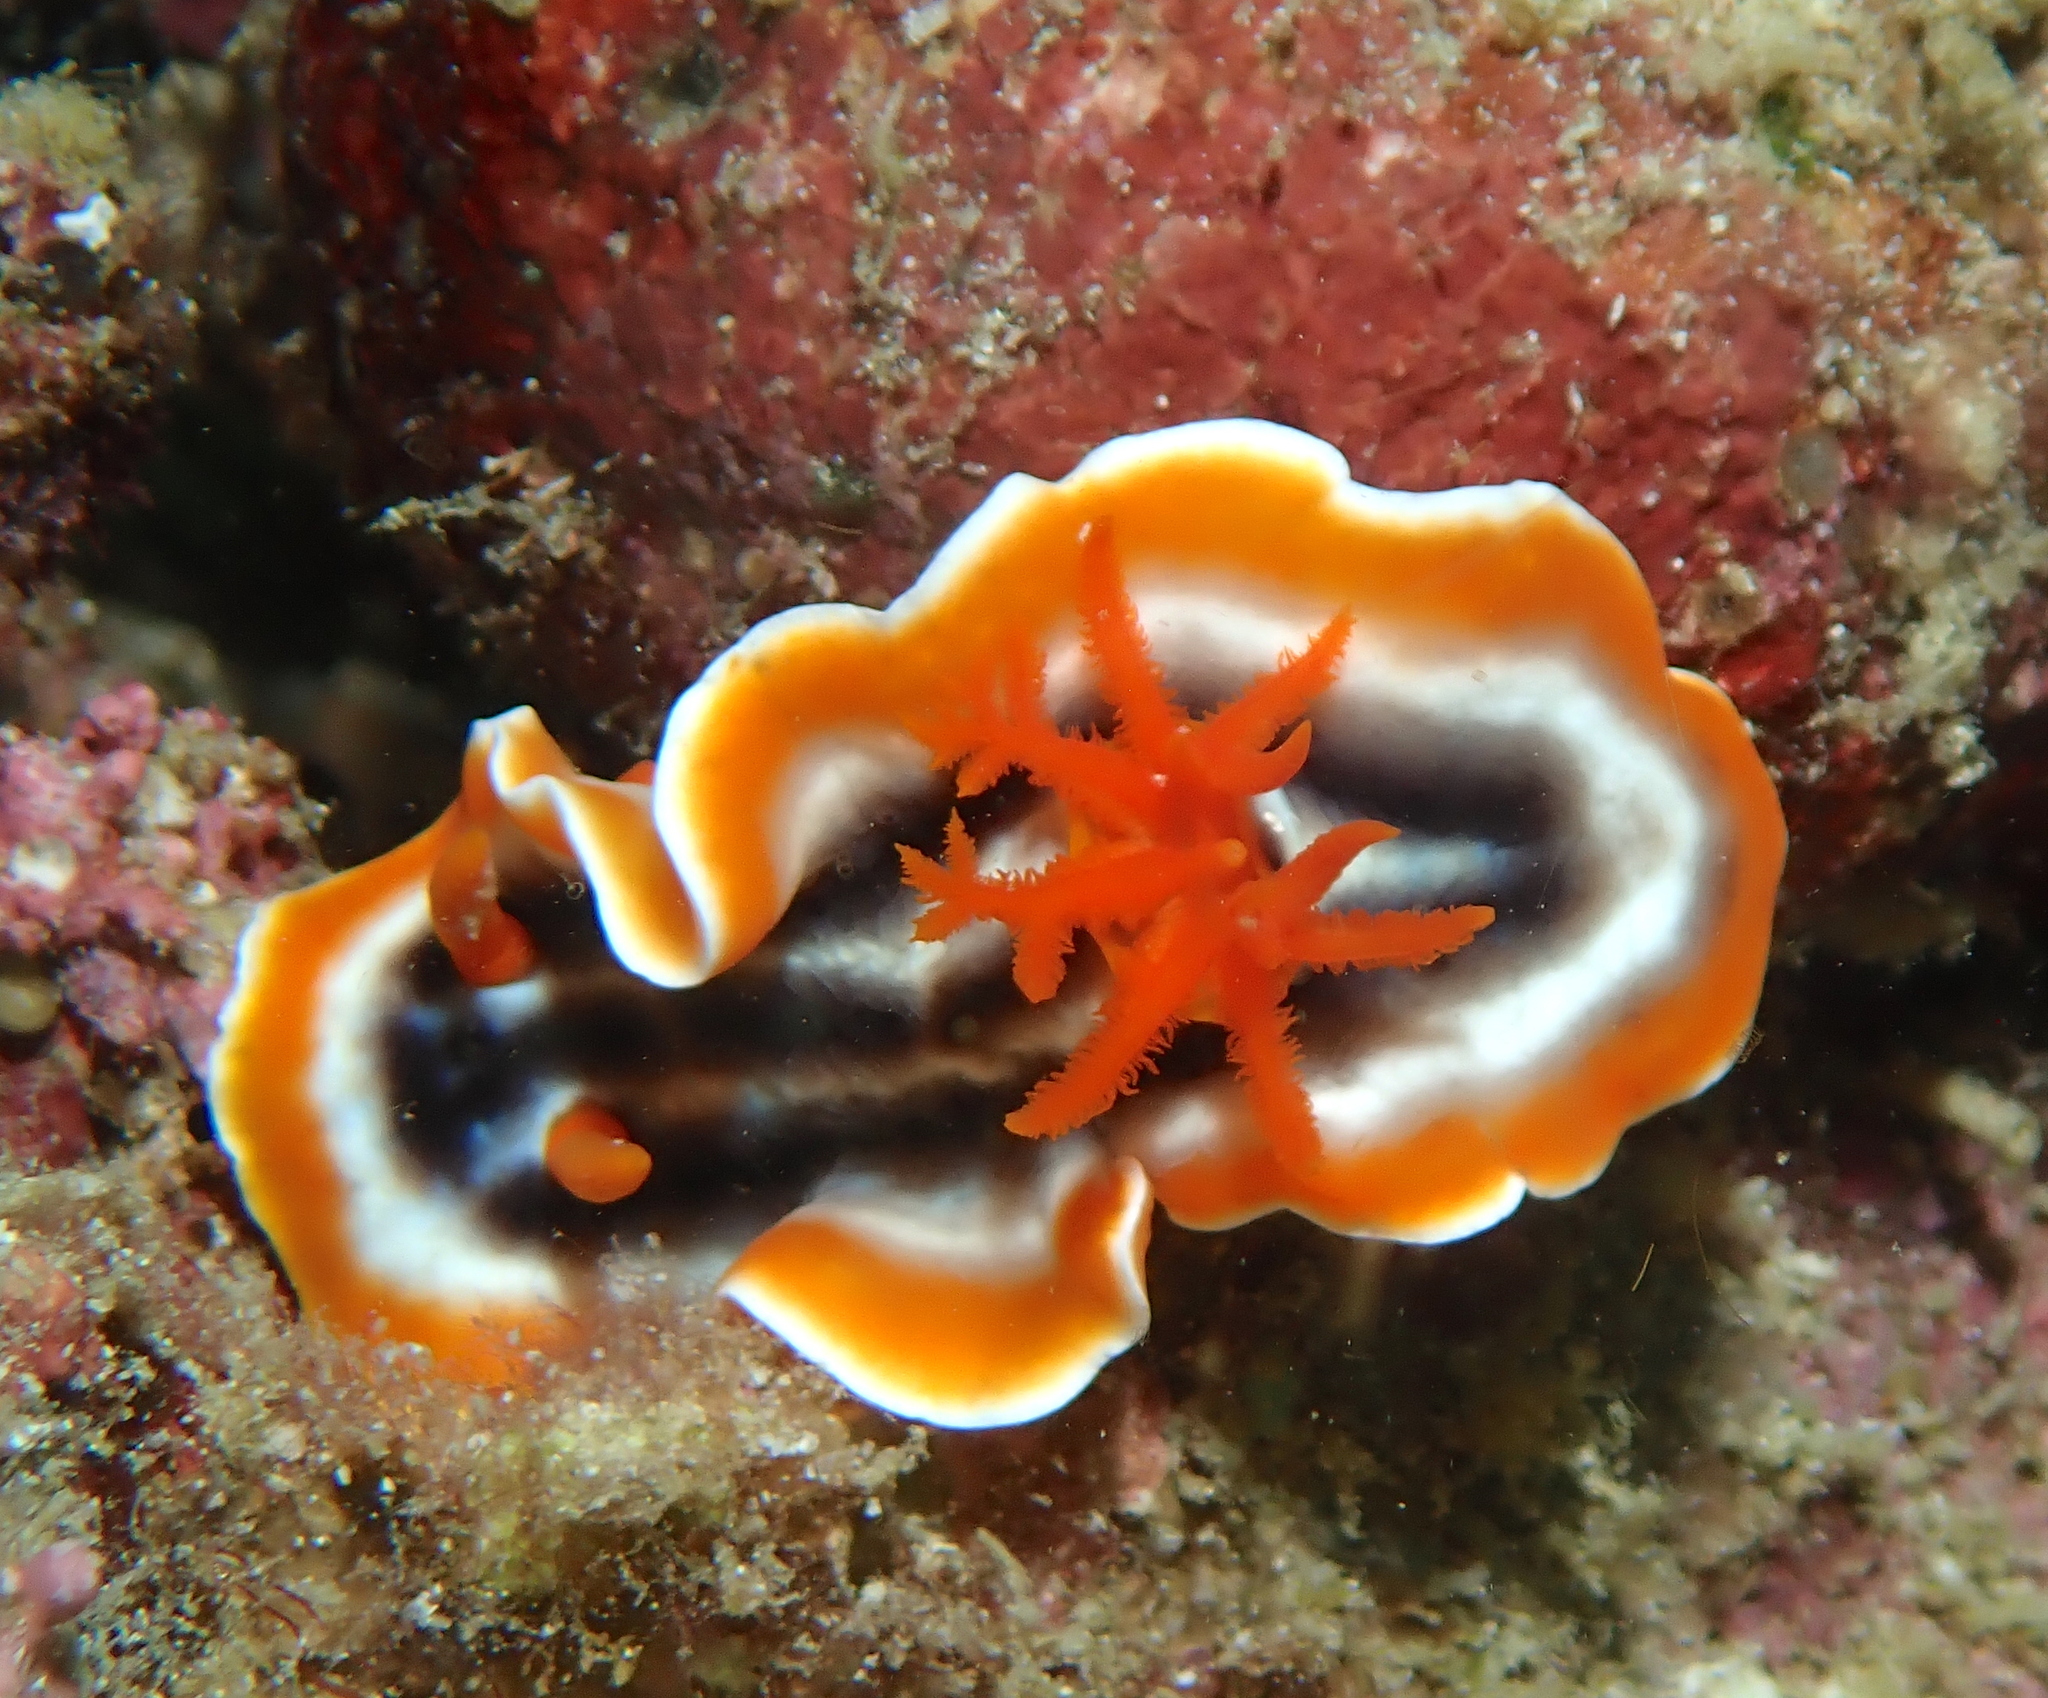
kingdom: Animalia
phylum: Mollusca
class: Gastropoda
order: Nudibranchia
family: Chromodorididae
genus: Chromodoris
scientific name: Chromodoris magnifica
